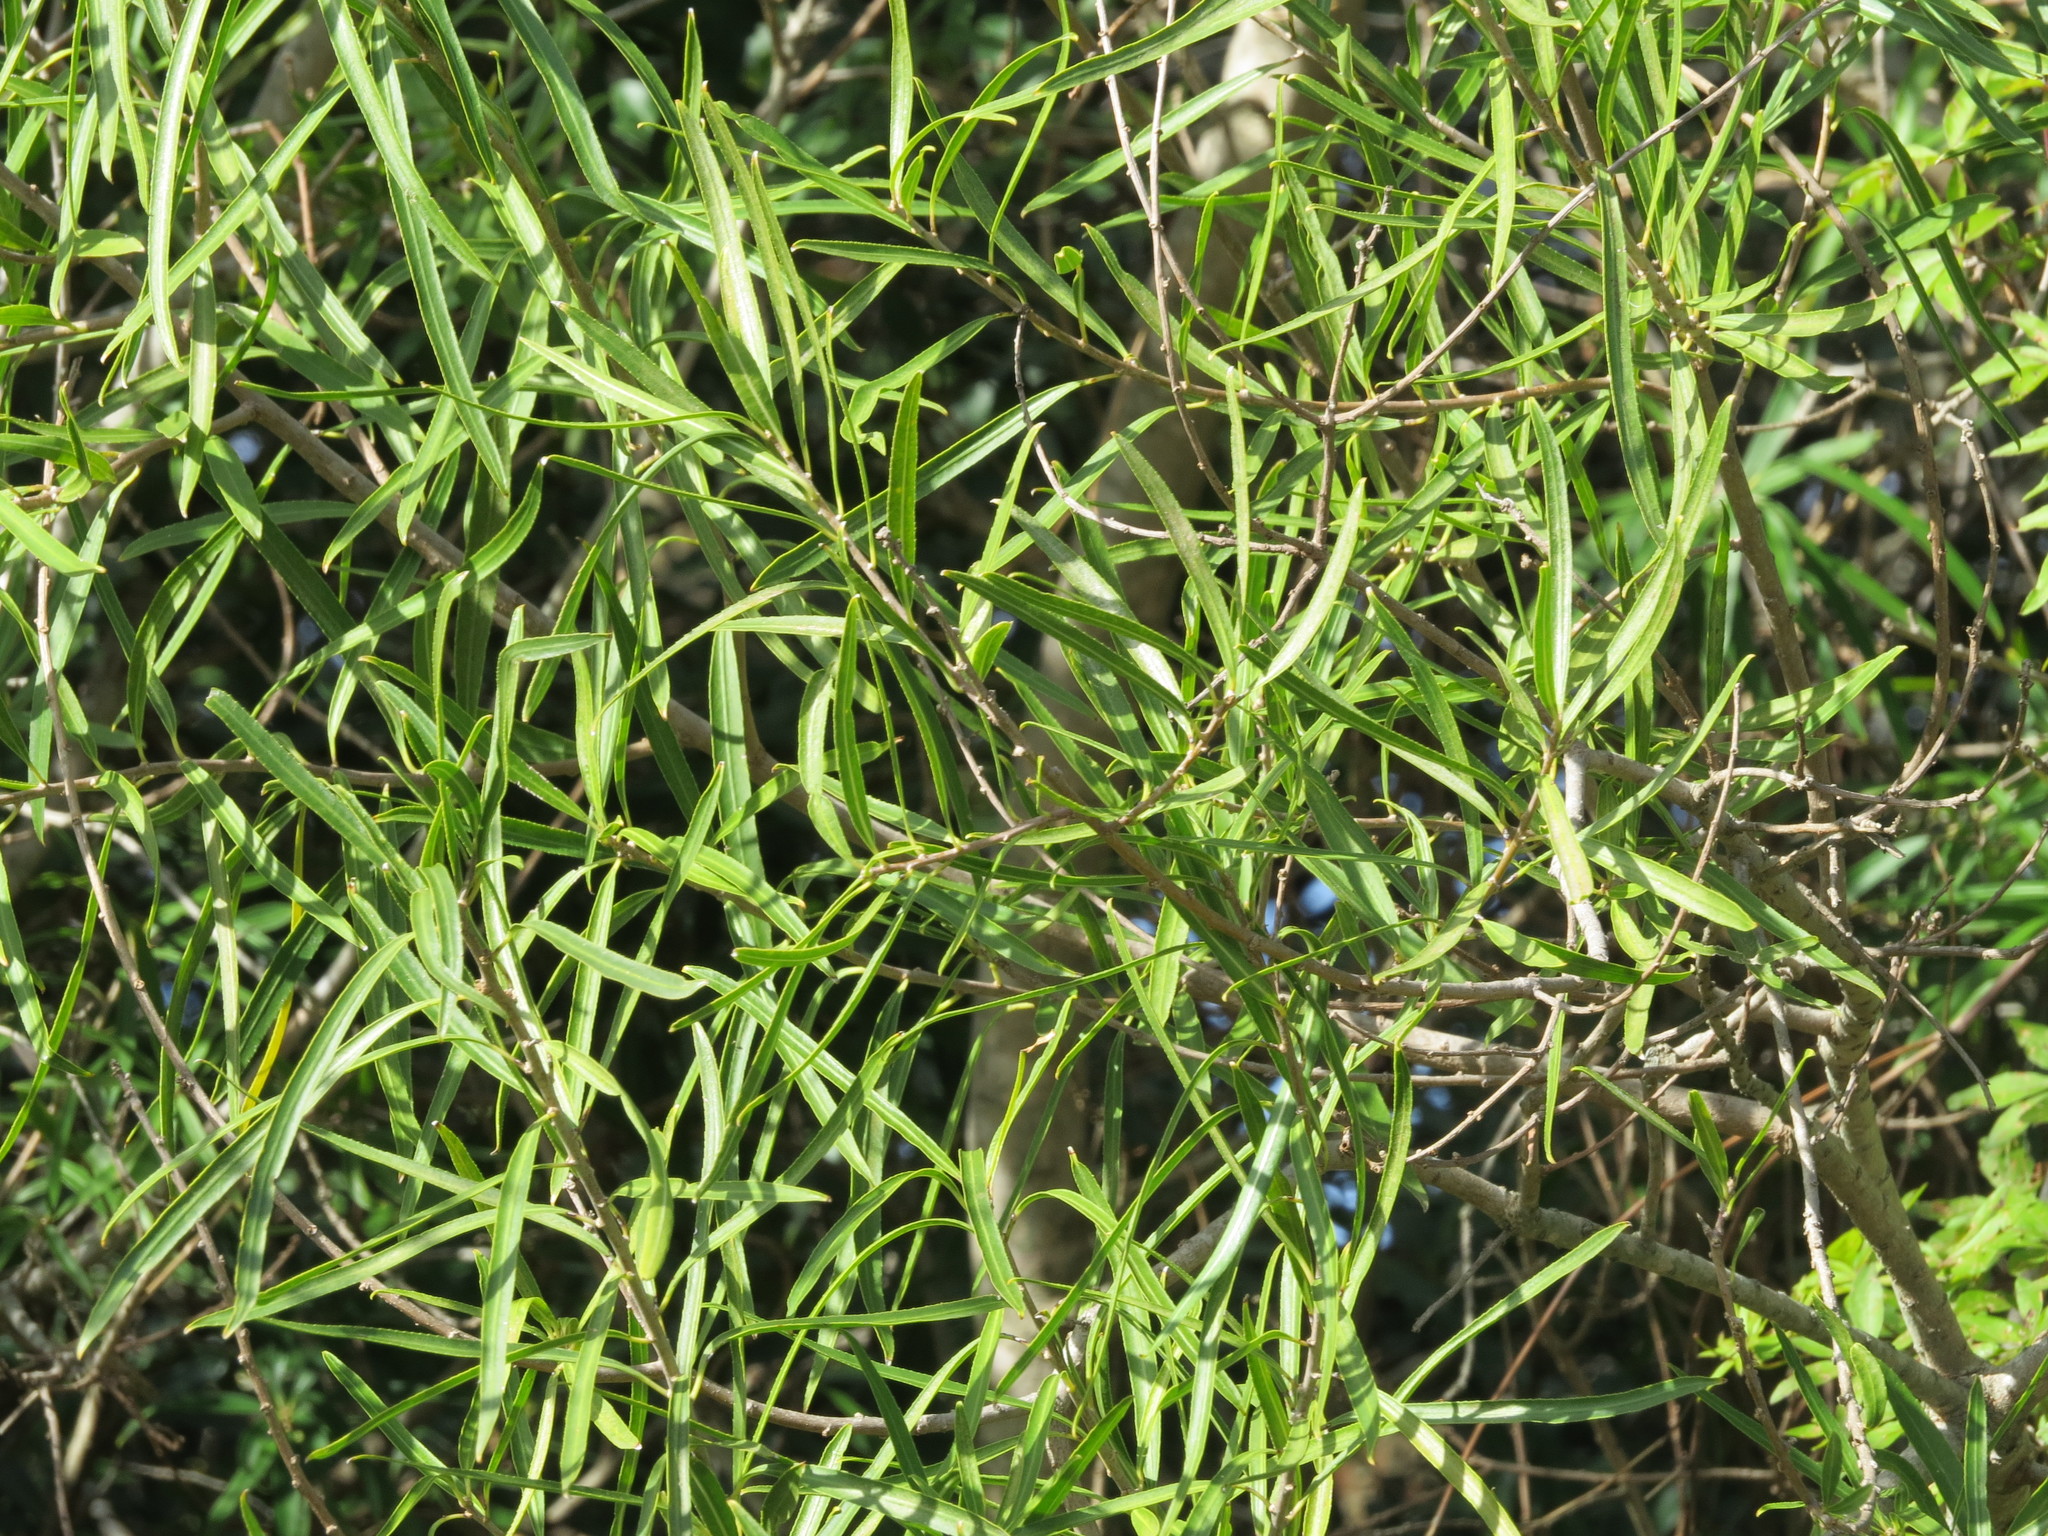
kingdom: Plantae
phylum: Tracheophyta
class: Magnoliopsida
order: Malpighiales
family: Euphorbiaceae
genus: Sapium
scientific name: Sapium haematospermum
